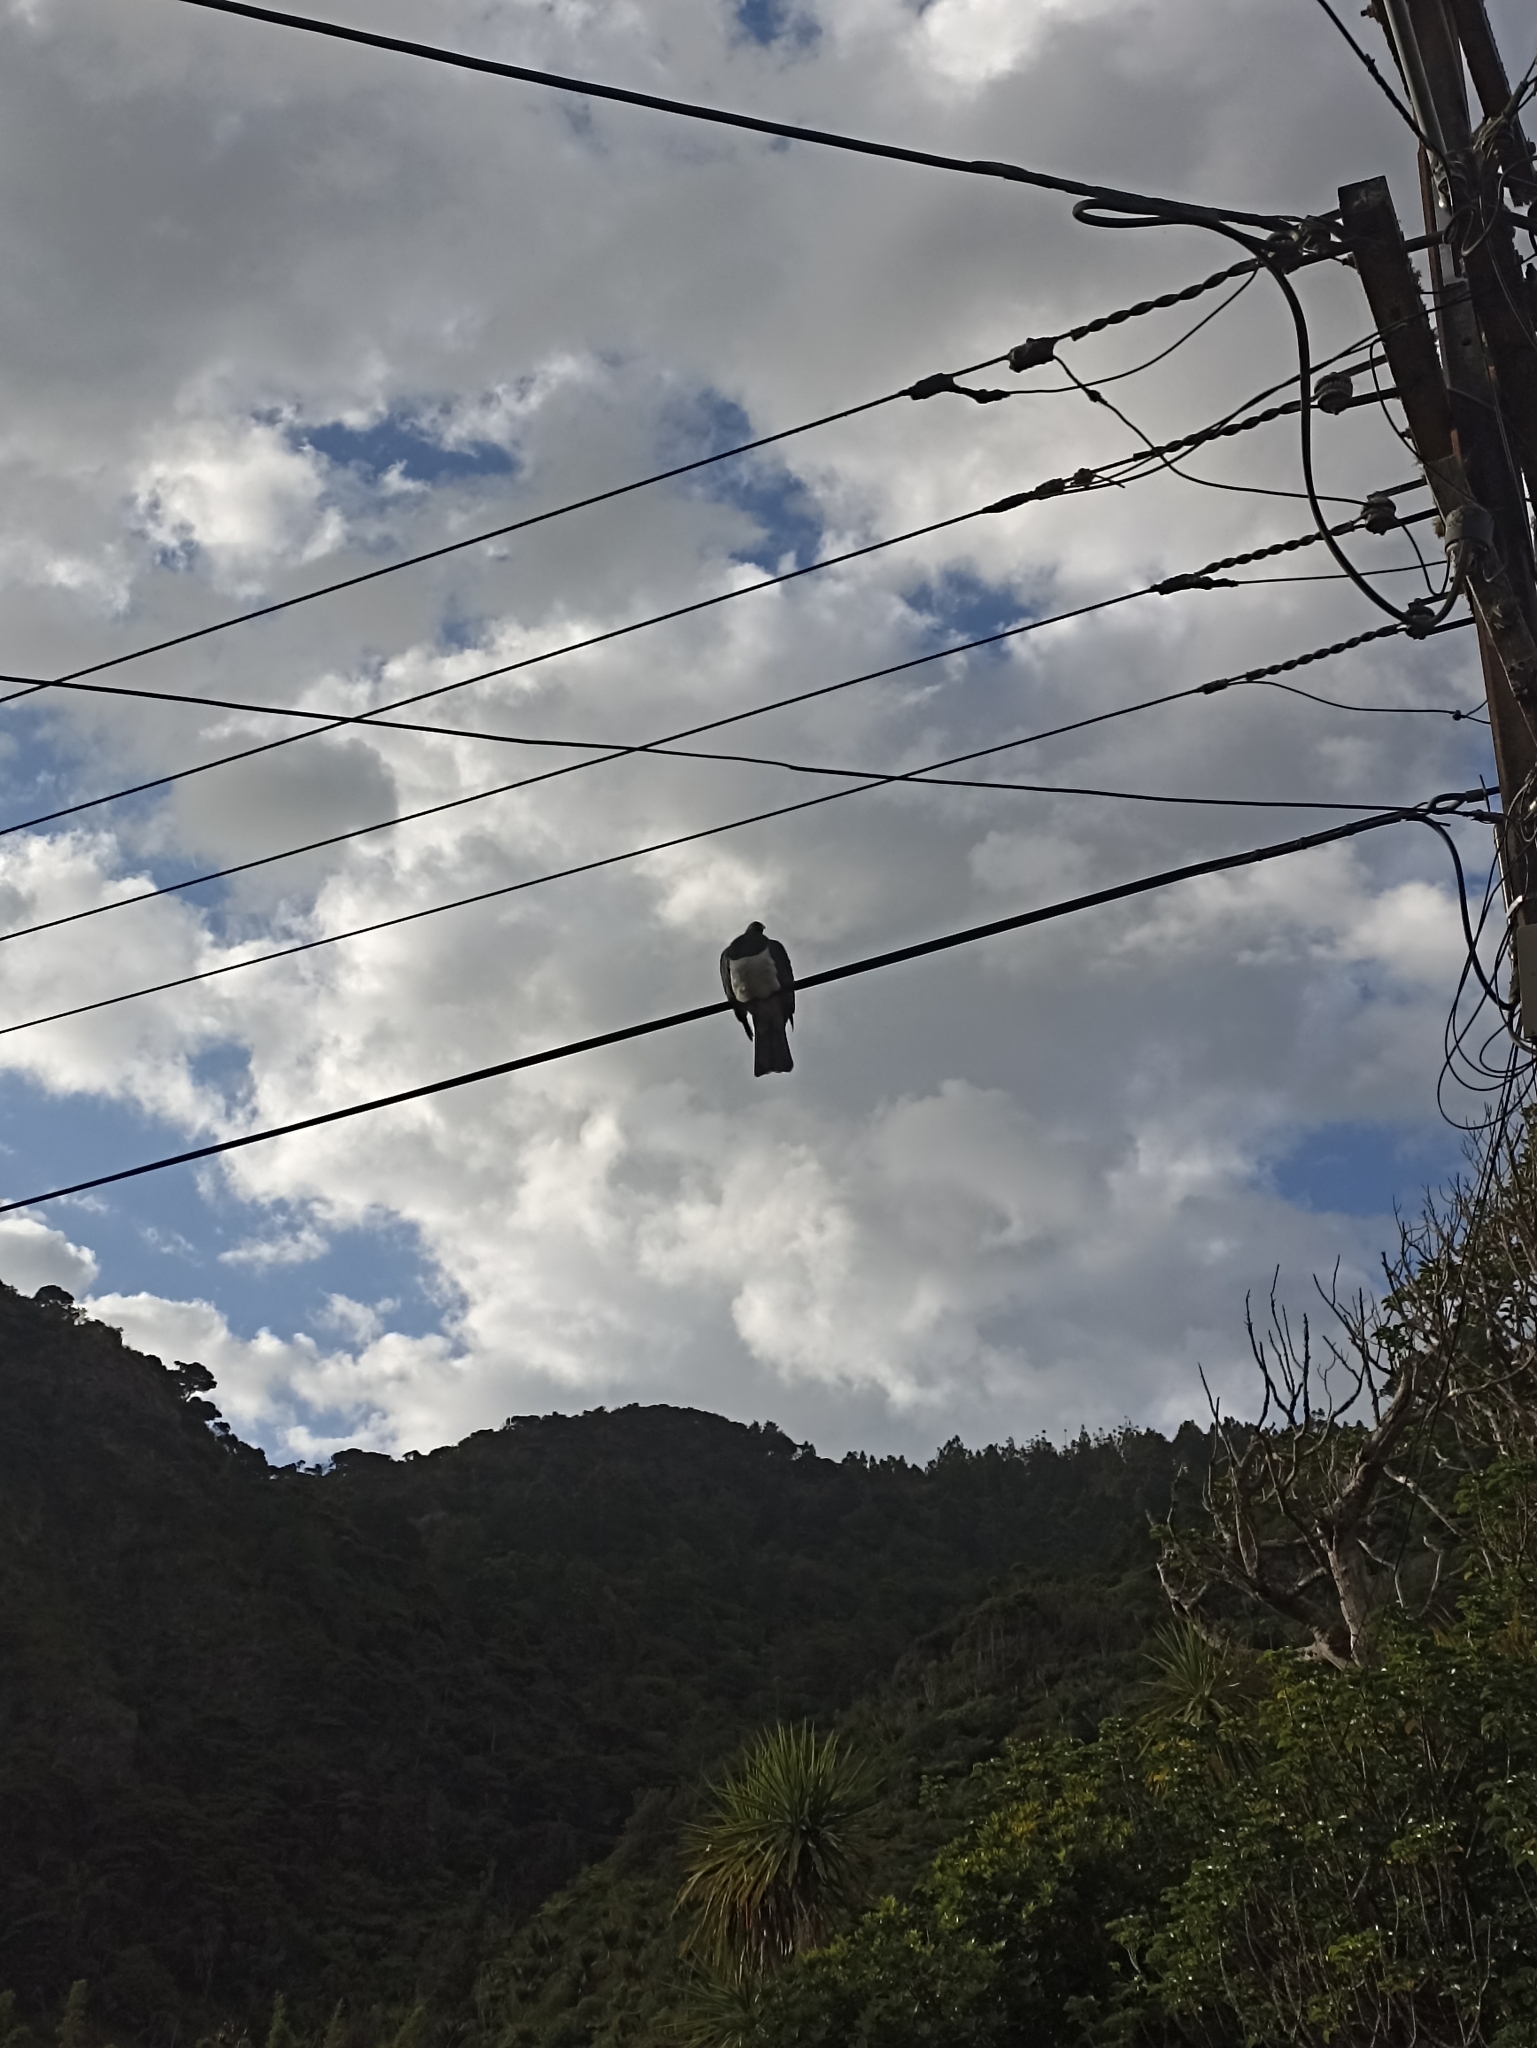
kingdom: Animalia
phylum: Chordata
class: Aves
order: Columbiformes
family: Columbidae
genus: Hemiphaga
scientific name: Hemiphaga novaeseelandiae
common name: New zealand pigeon
